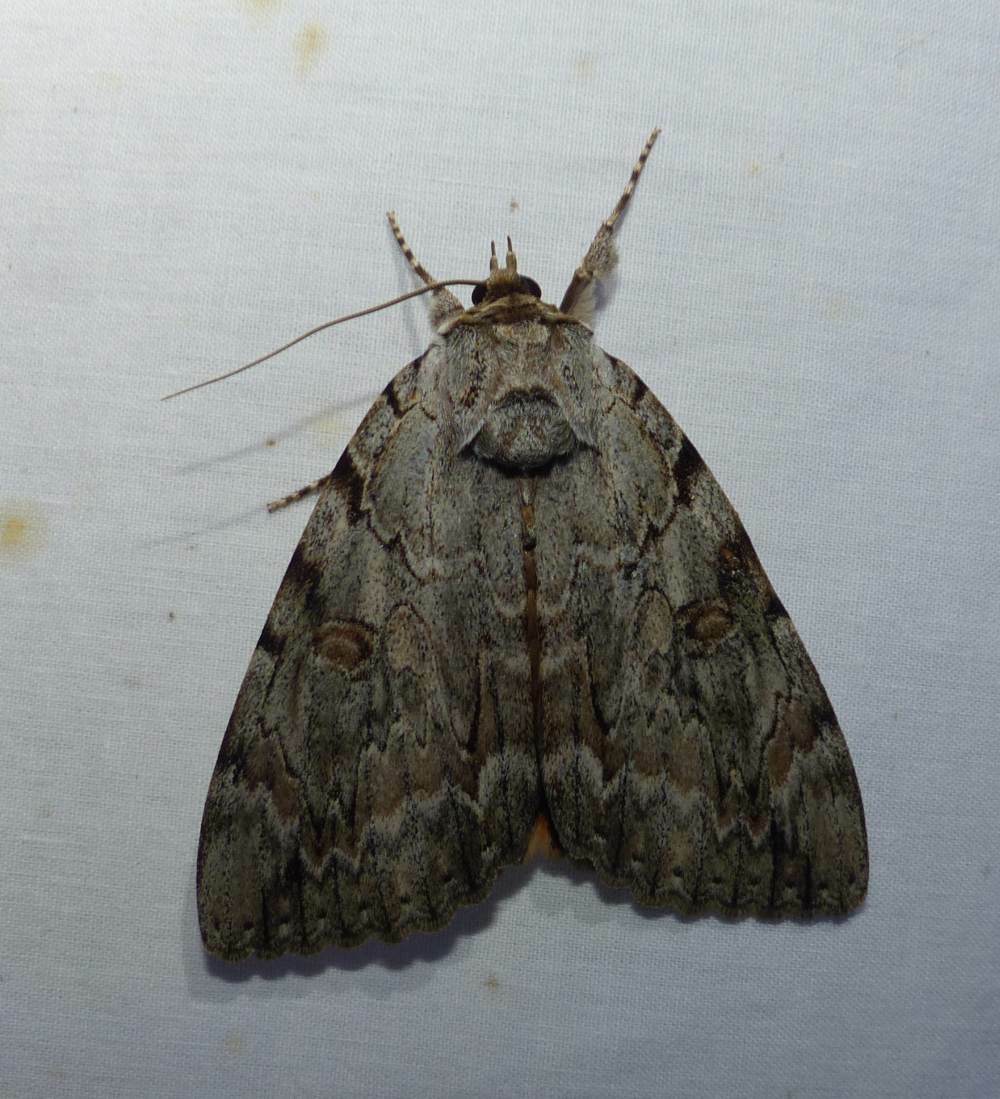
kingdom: Animalia
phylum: Arthropoda
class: Insecta
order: Lepidoptera
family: Erebidae
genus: Catocala
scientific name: Catocala subnata
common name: Youthful underwing
